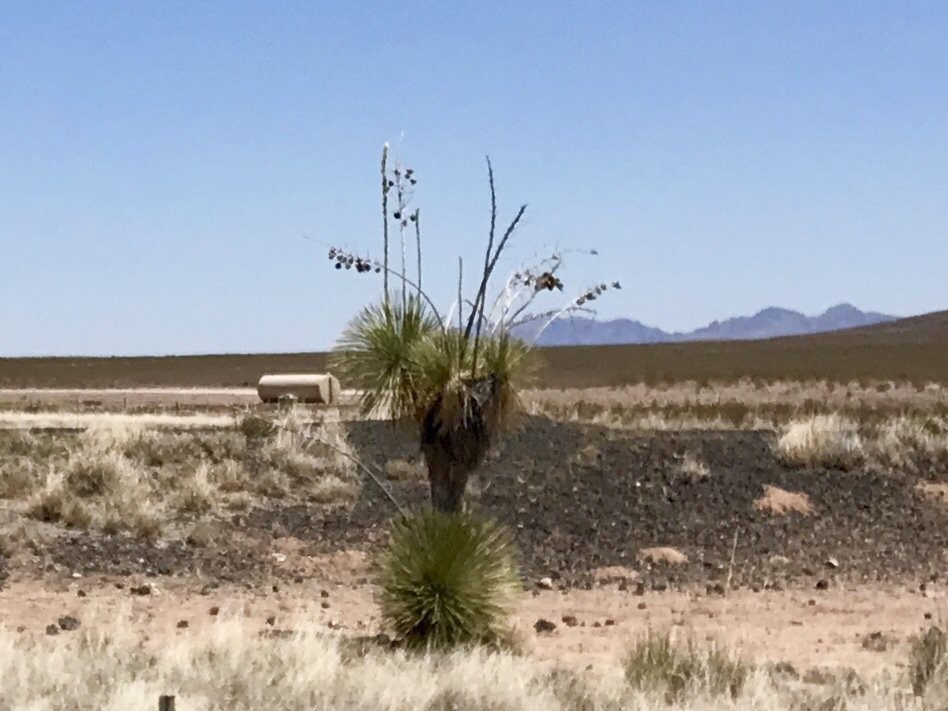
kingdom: Plantae
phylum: Tracheophyta
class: Liliopsida
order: Asparagales
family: Asparagaceae
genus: Yucca
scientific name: Yucca elata
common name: Palmella
